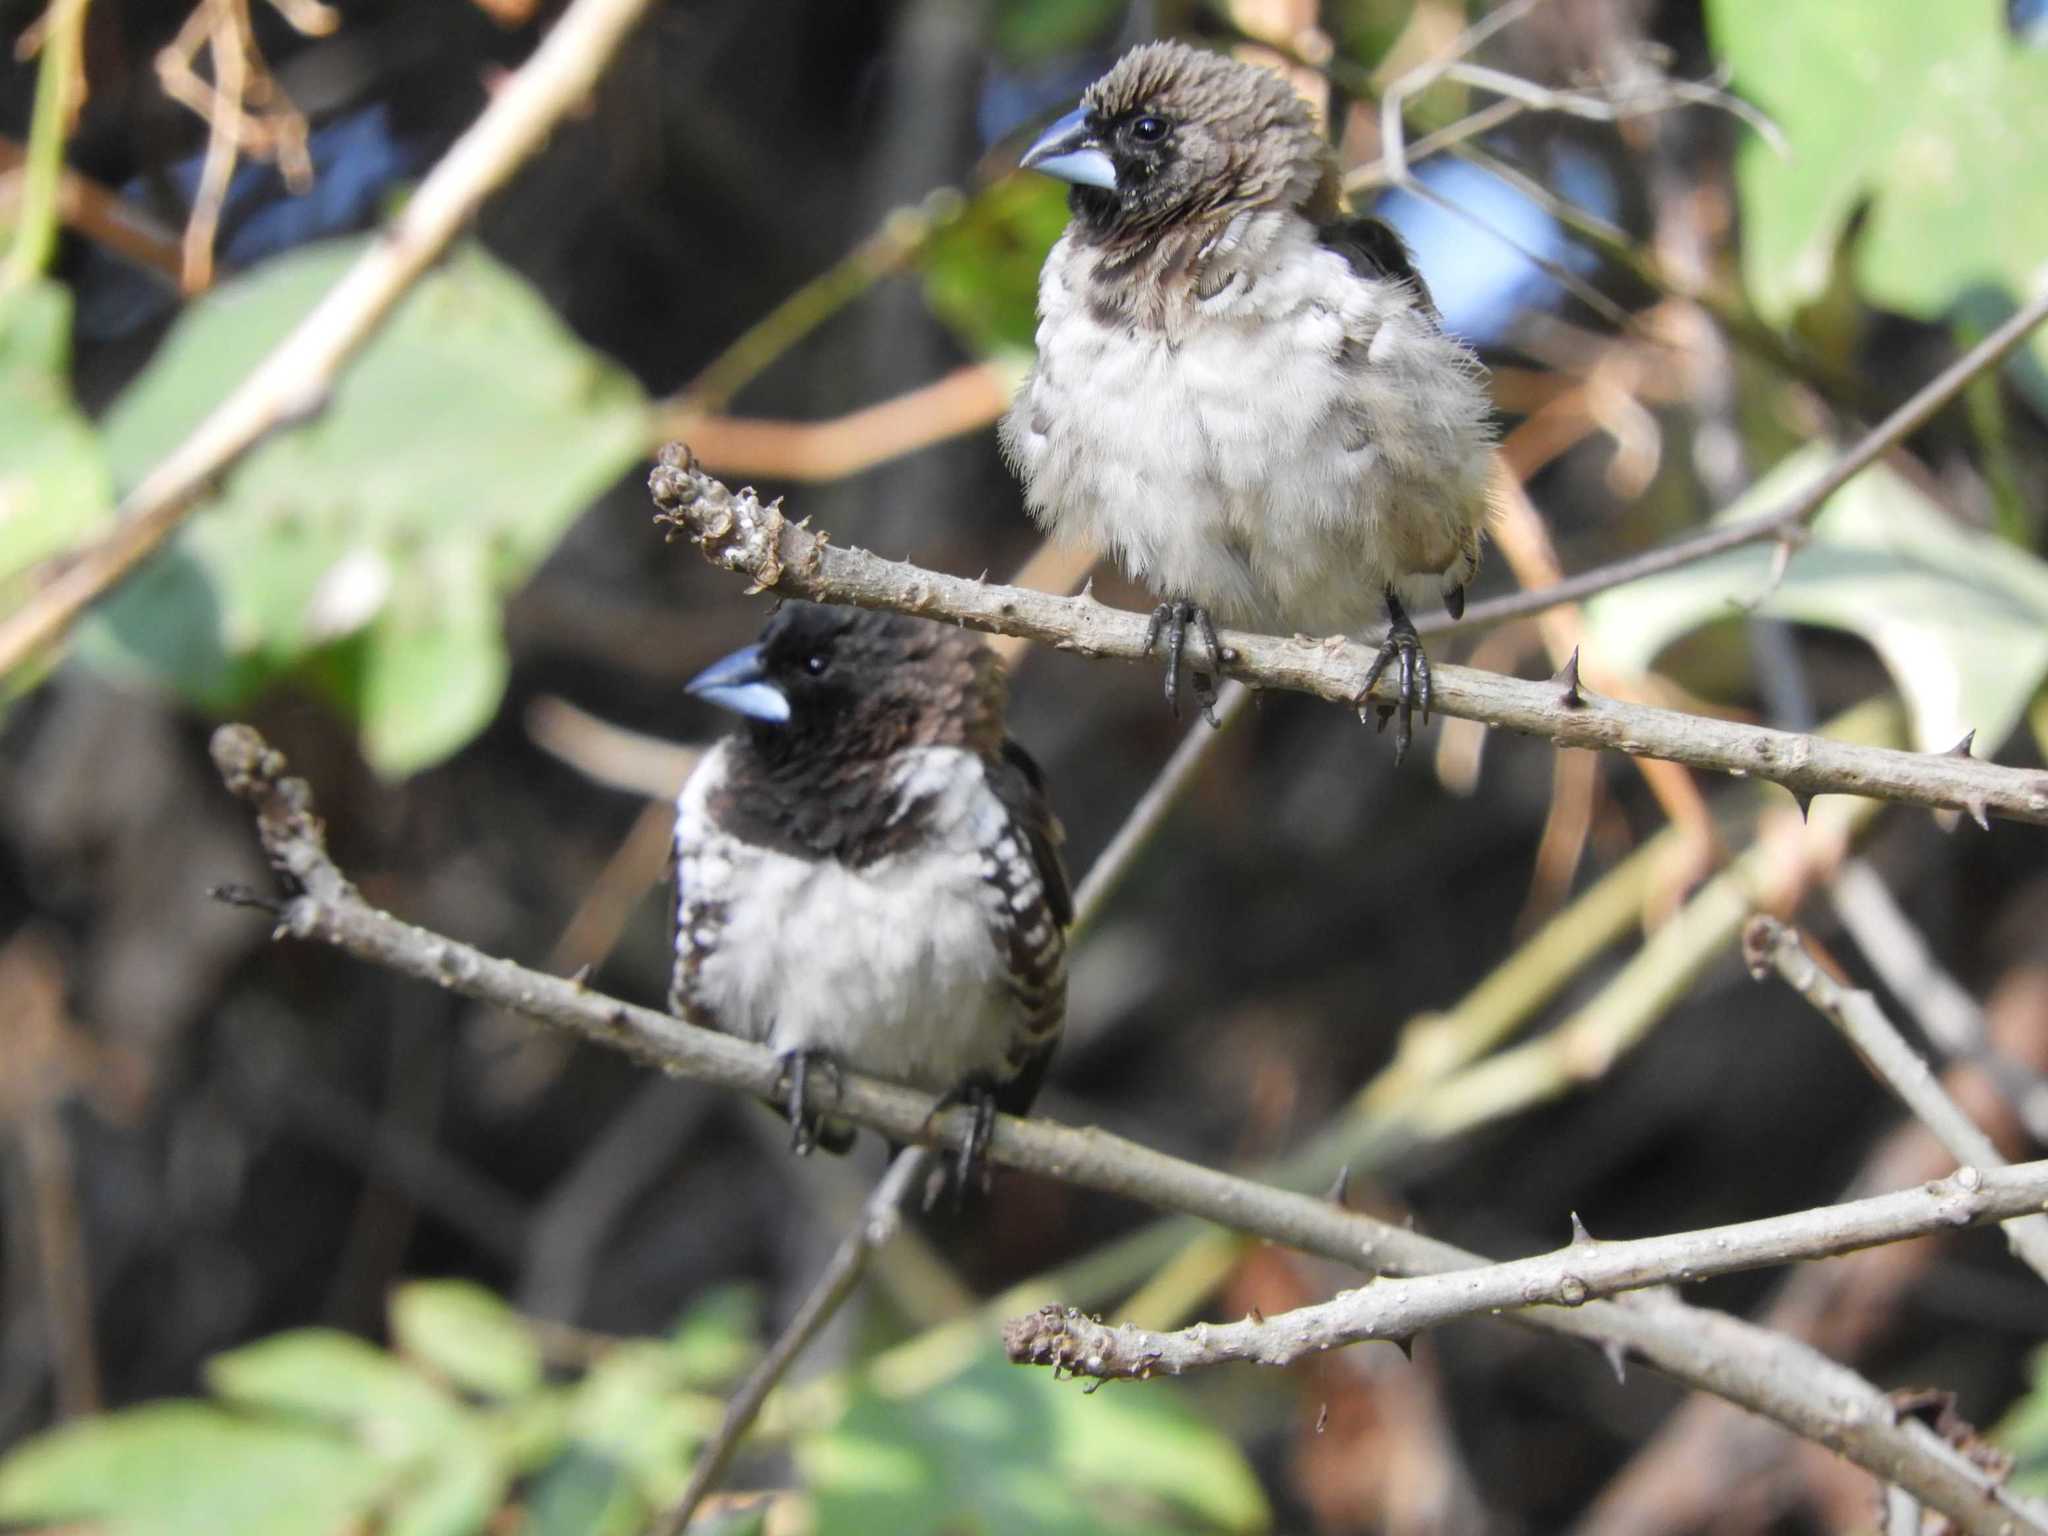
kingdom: Animalia
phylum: Chordata
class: Aves
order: Passeriformes
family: Estrildidae
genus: Lonchura
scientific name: Lonchura cucullata
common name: Bronze mannikin
